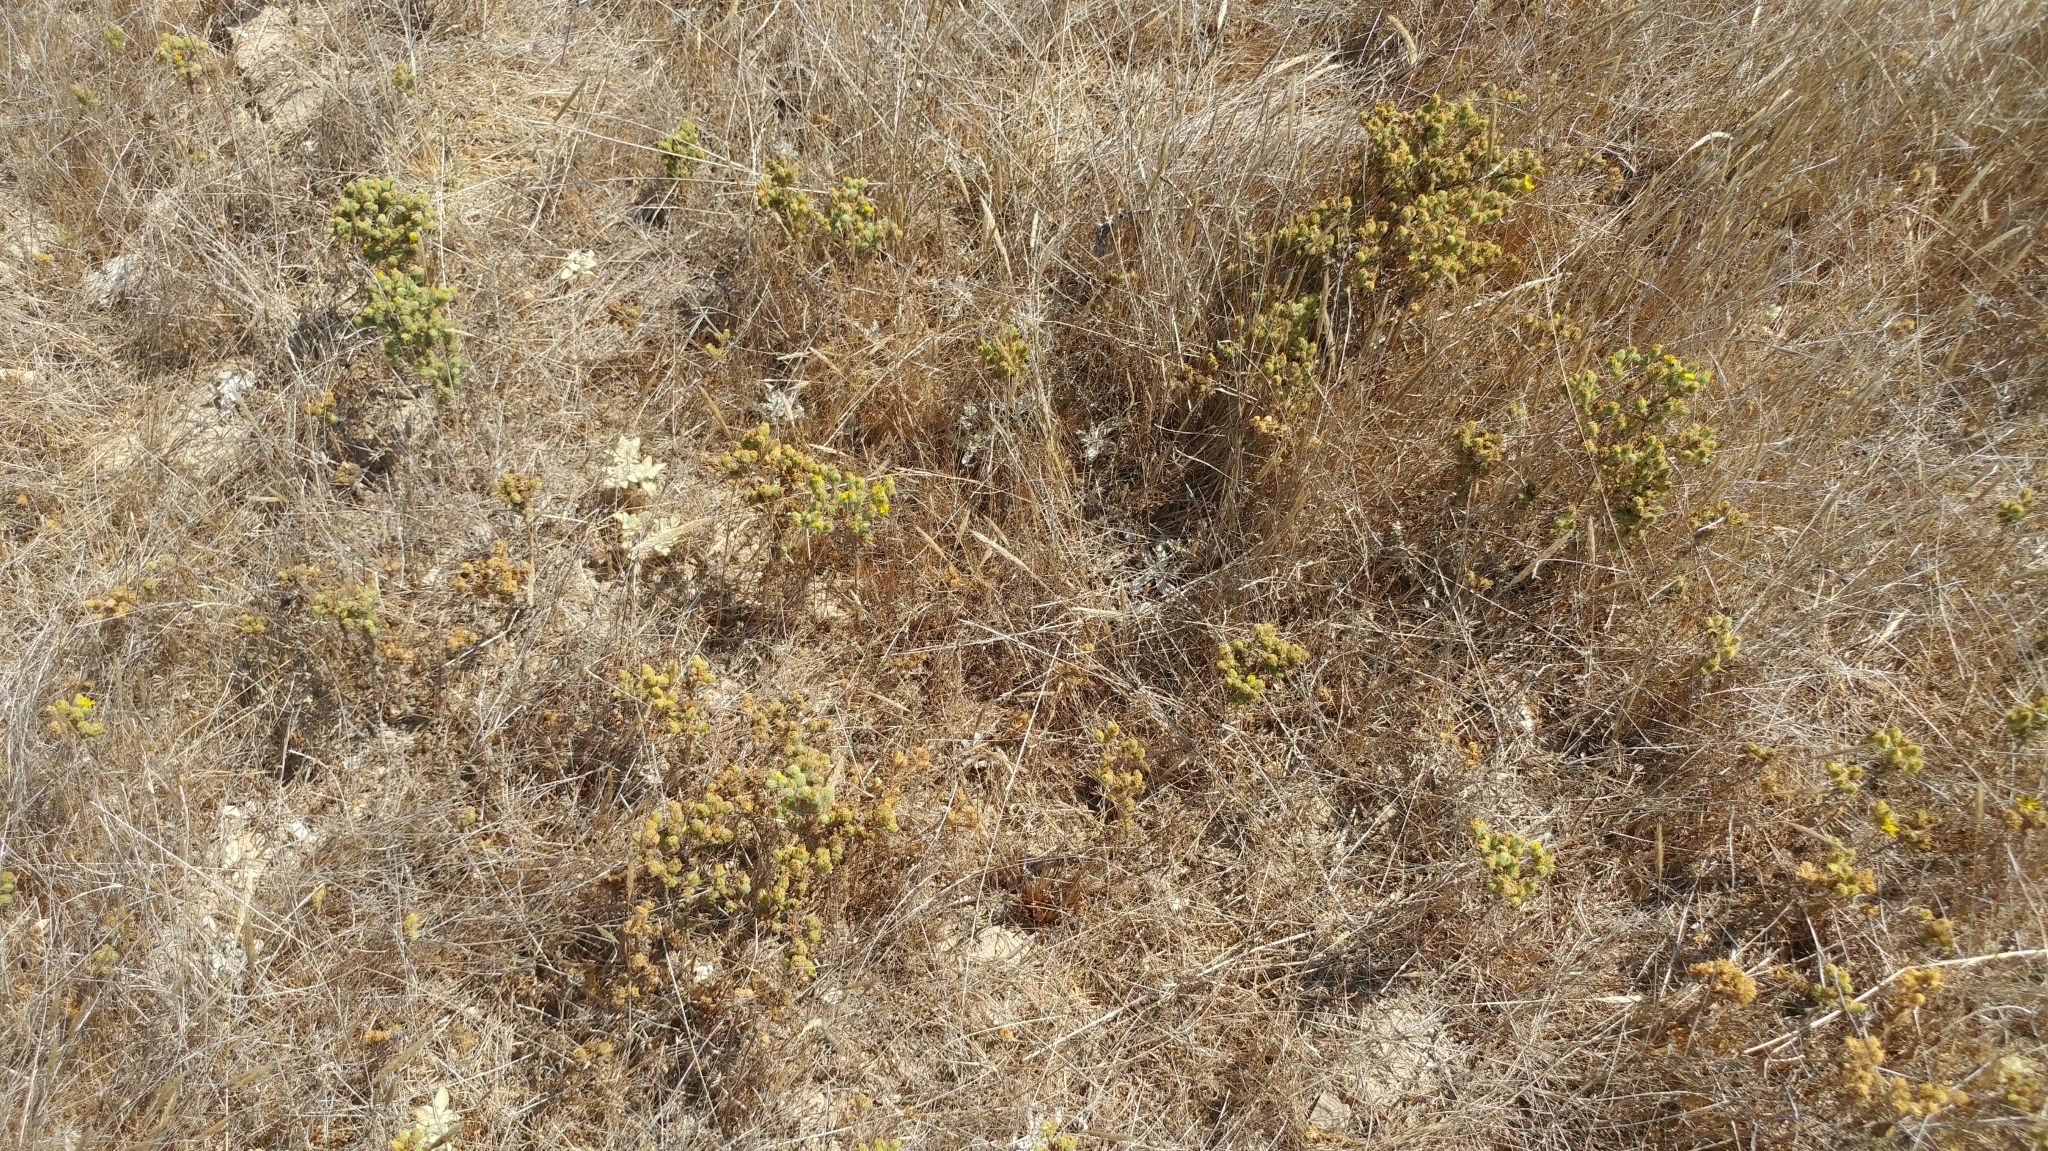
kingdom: Plantae
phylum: Tracheophyta
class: Magnoliopsida
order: Asterales
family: Asteraceae
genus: Deinandra
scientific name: Deinandra increscens
